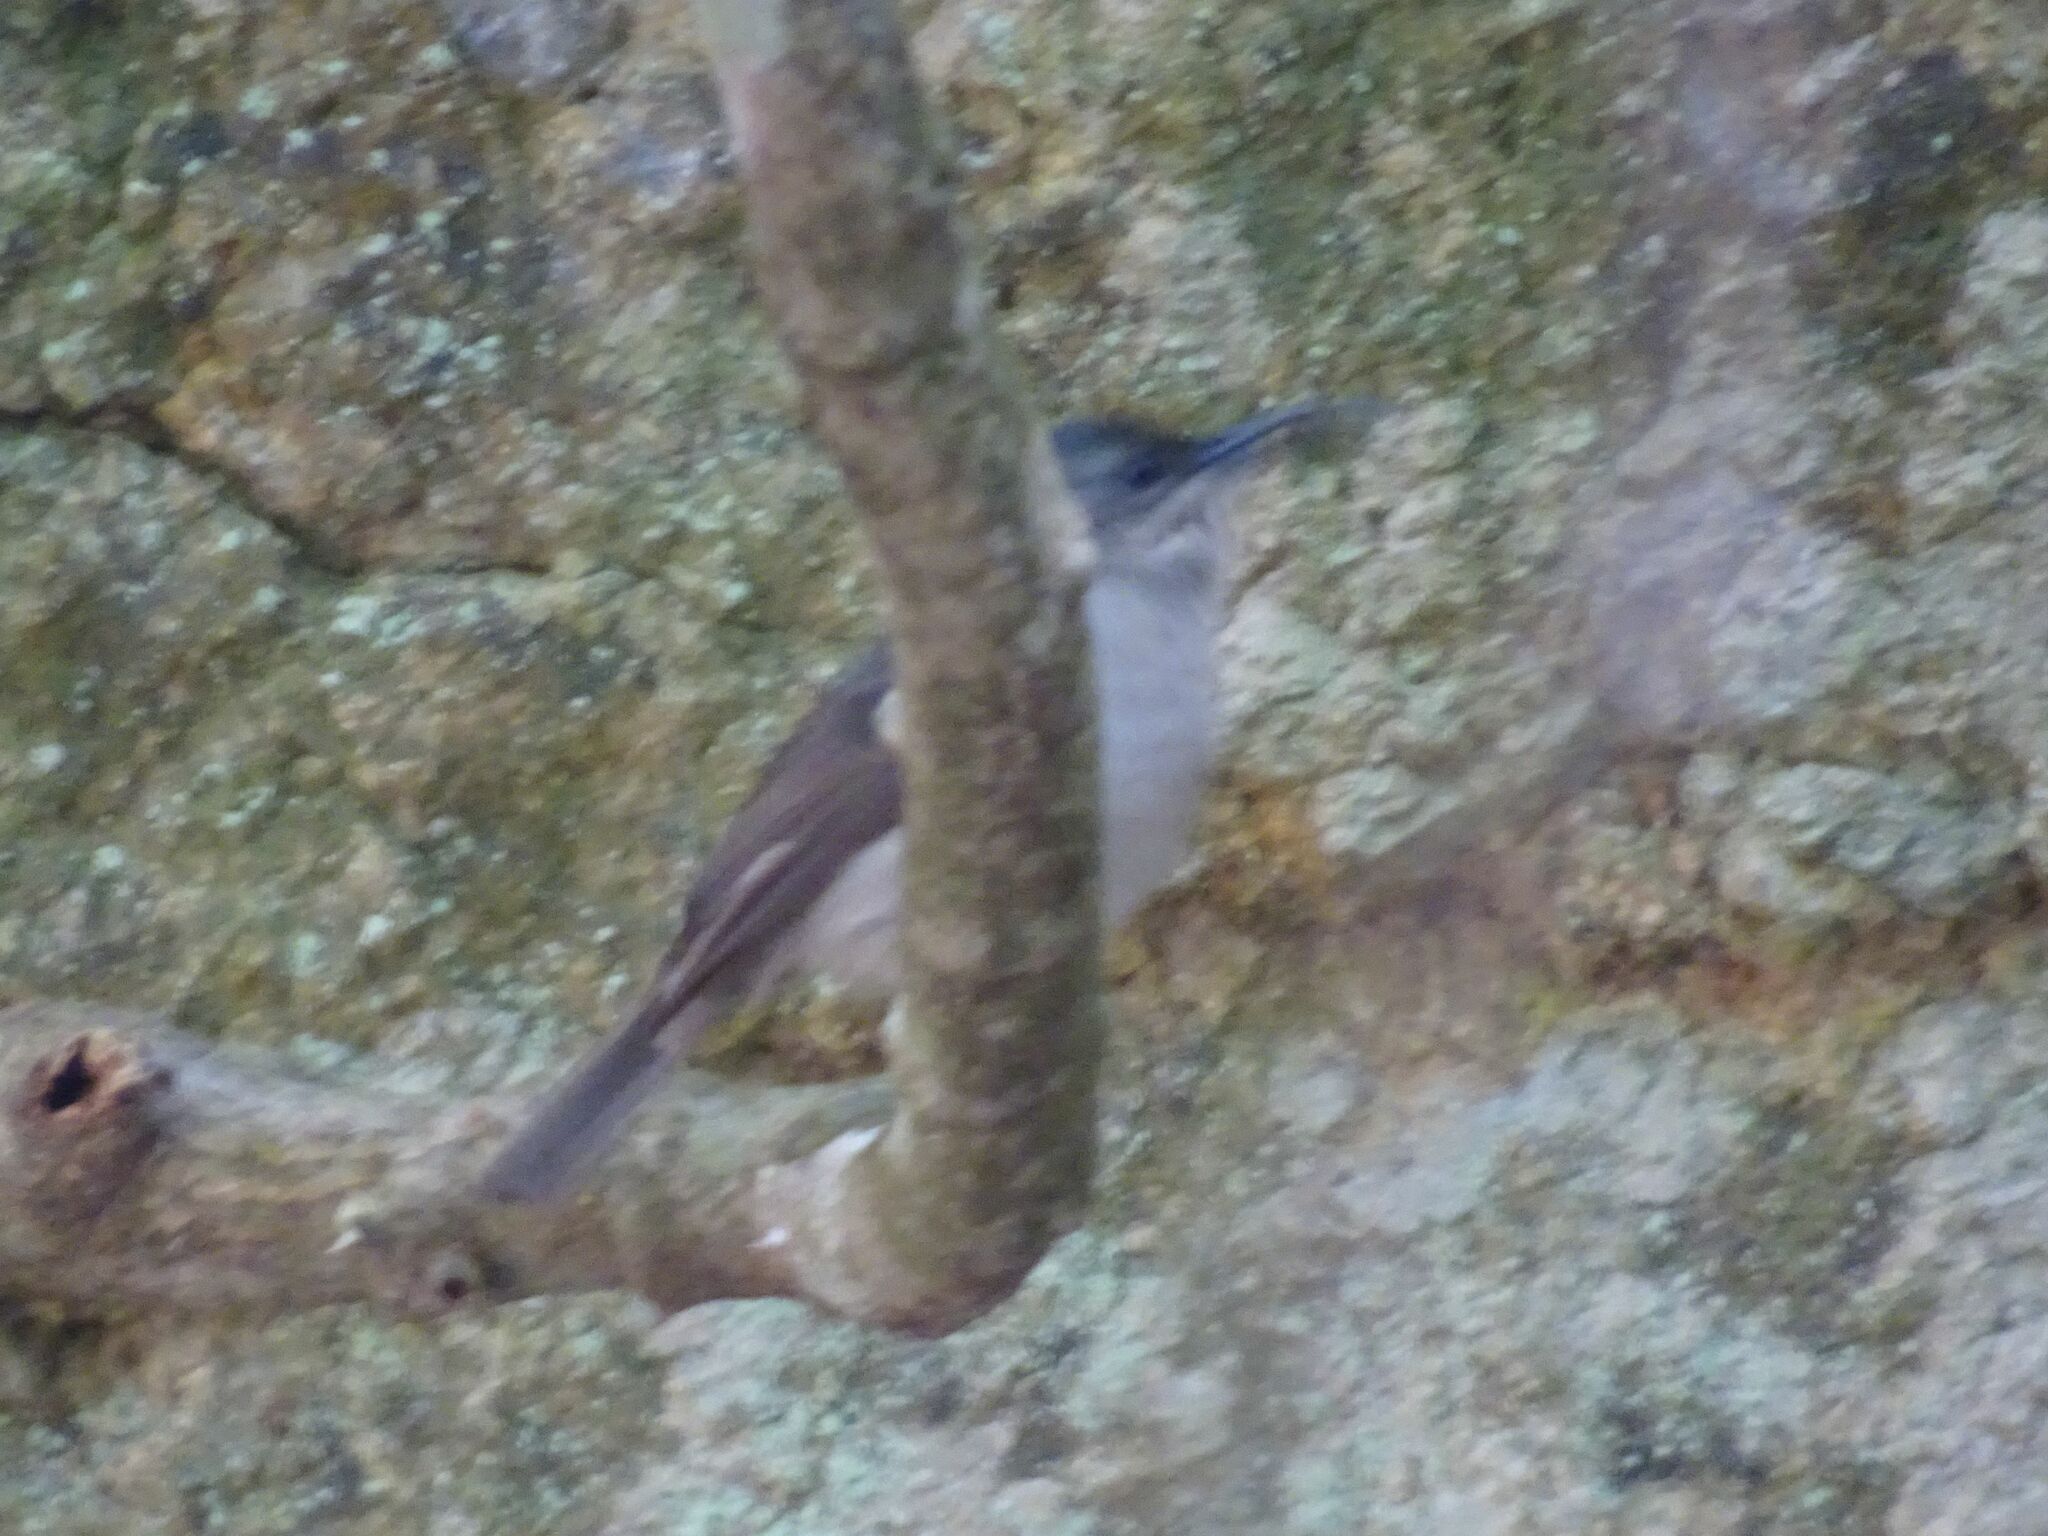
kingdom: Animalia
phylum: Chordata
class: Aves
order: Passeriformes
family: Nectariniidae
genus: Cyanomitra
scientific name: Cyanomitra veroxii
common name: Grey sunbird
